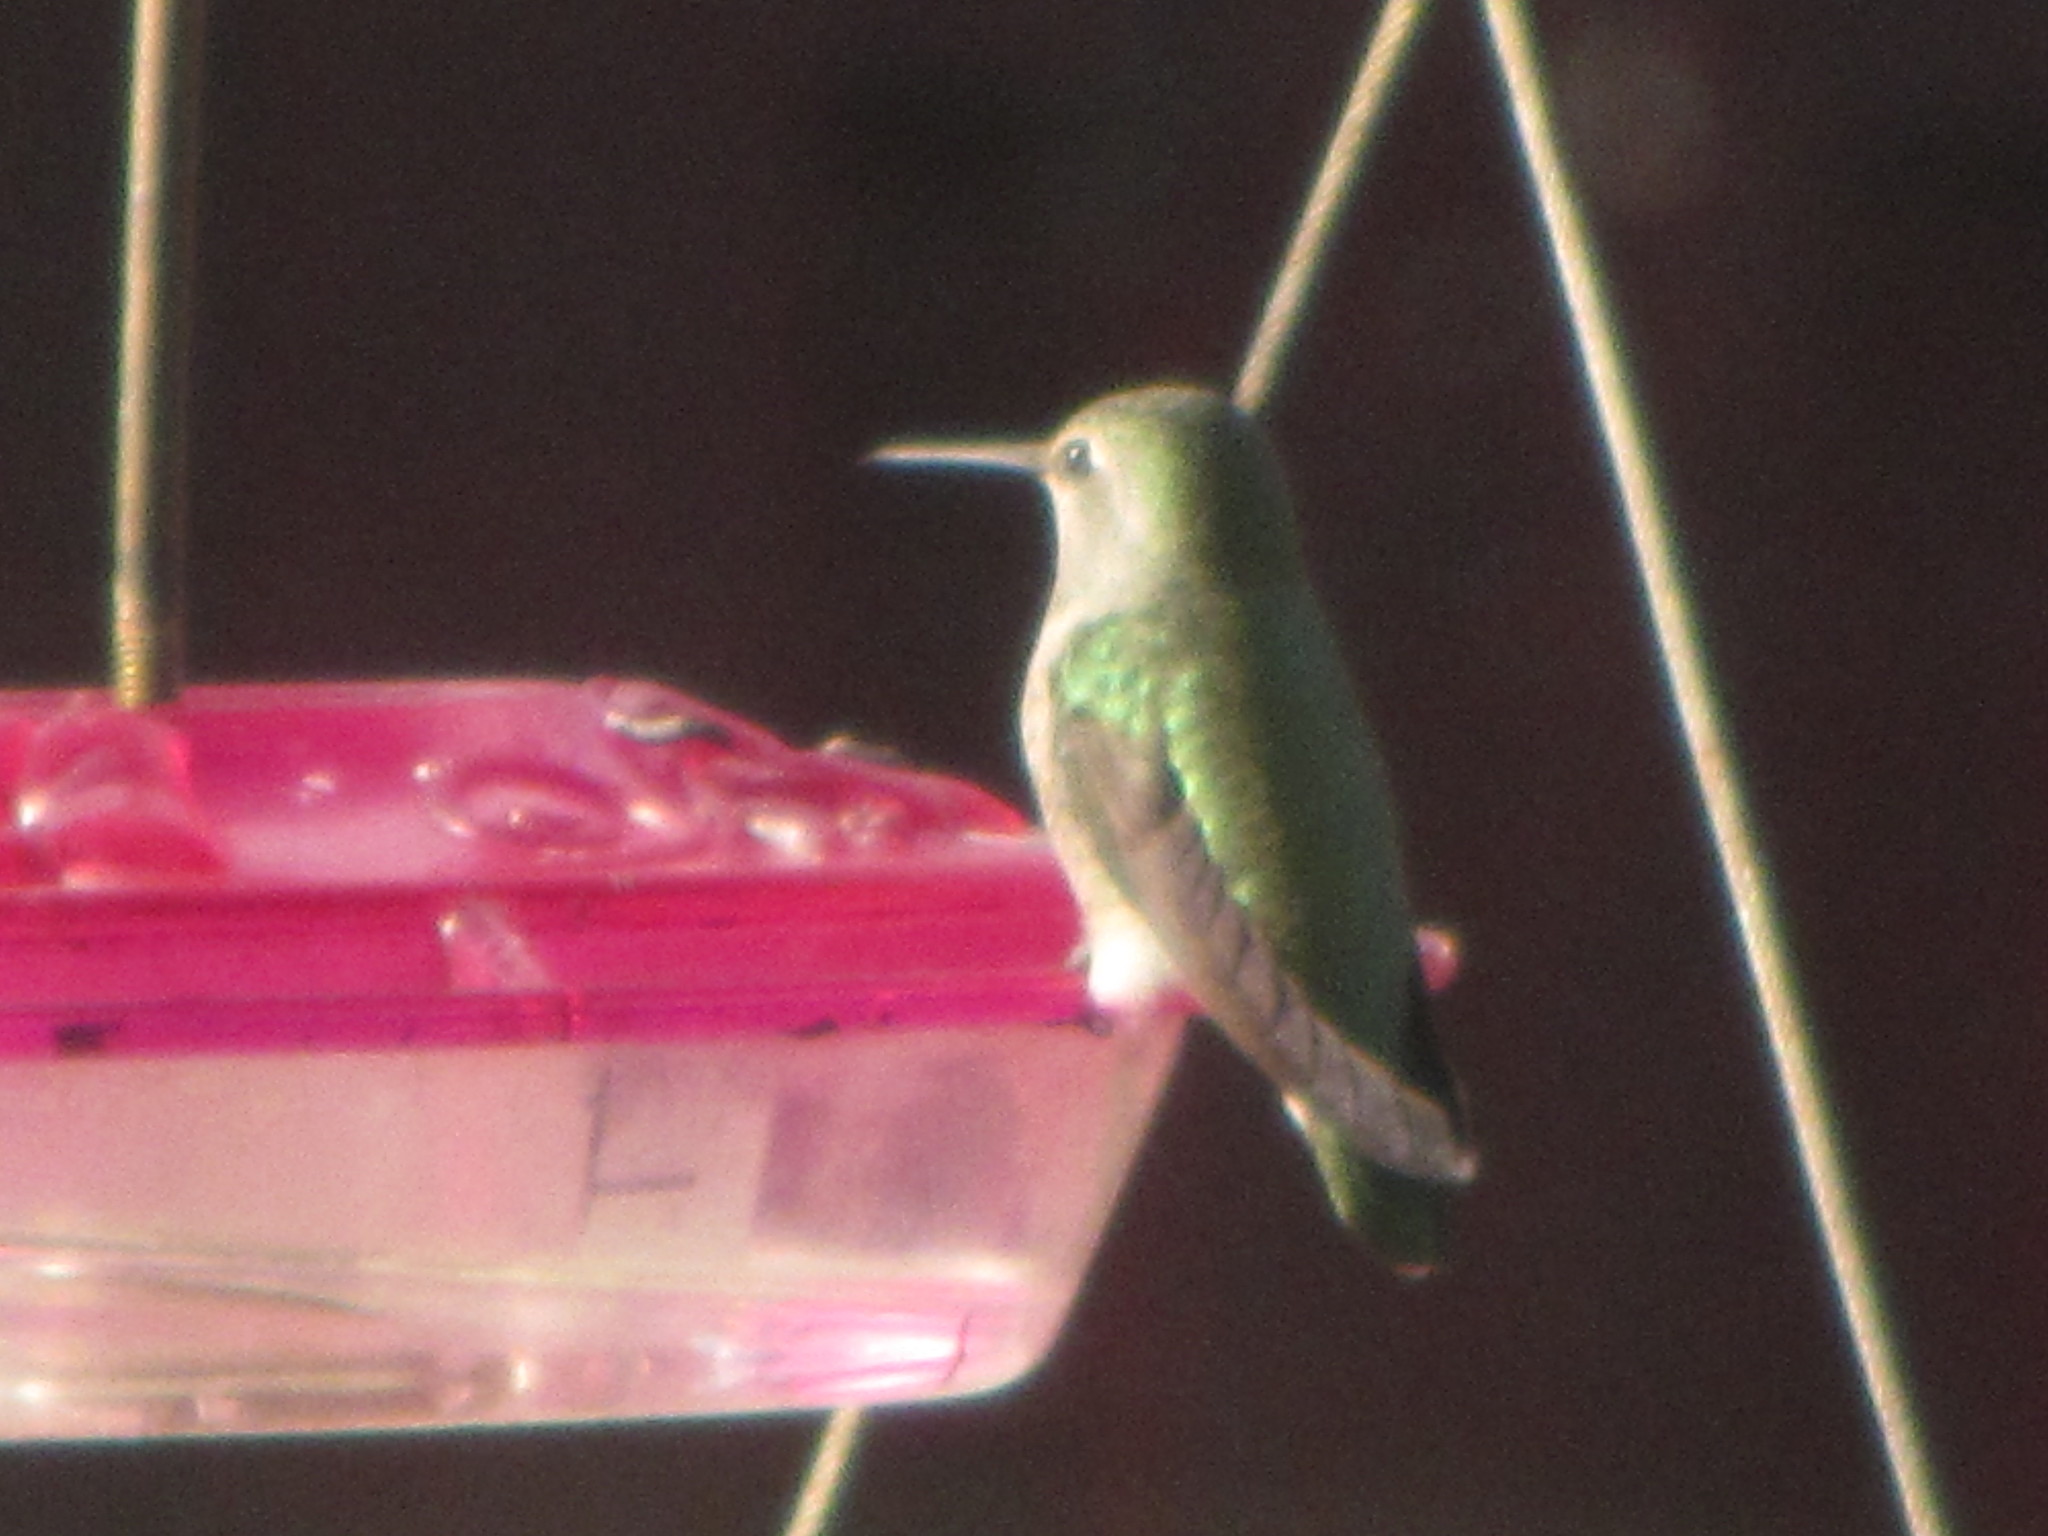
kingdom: Animalia
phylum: Chordata
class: Aves
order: Apodiformes
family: Trochilidae
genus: Calypte
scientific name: Calypte anna
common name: Anna's hummingbird
